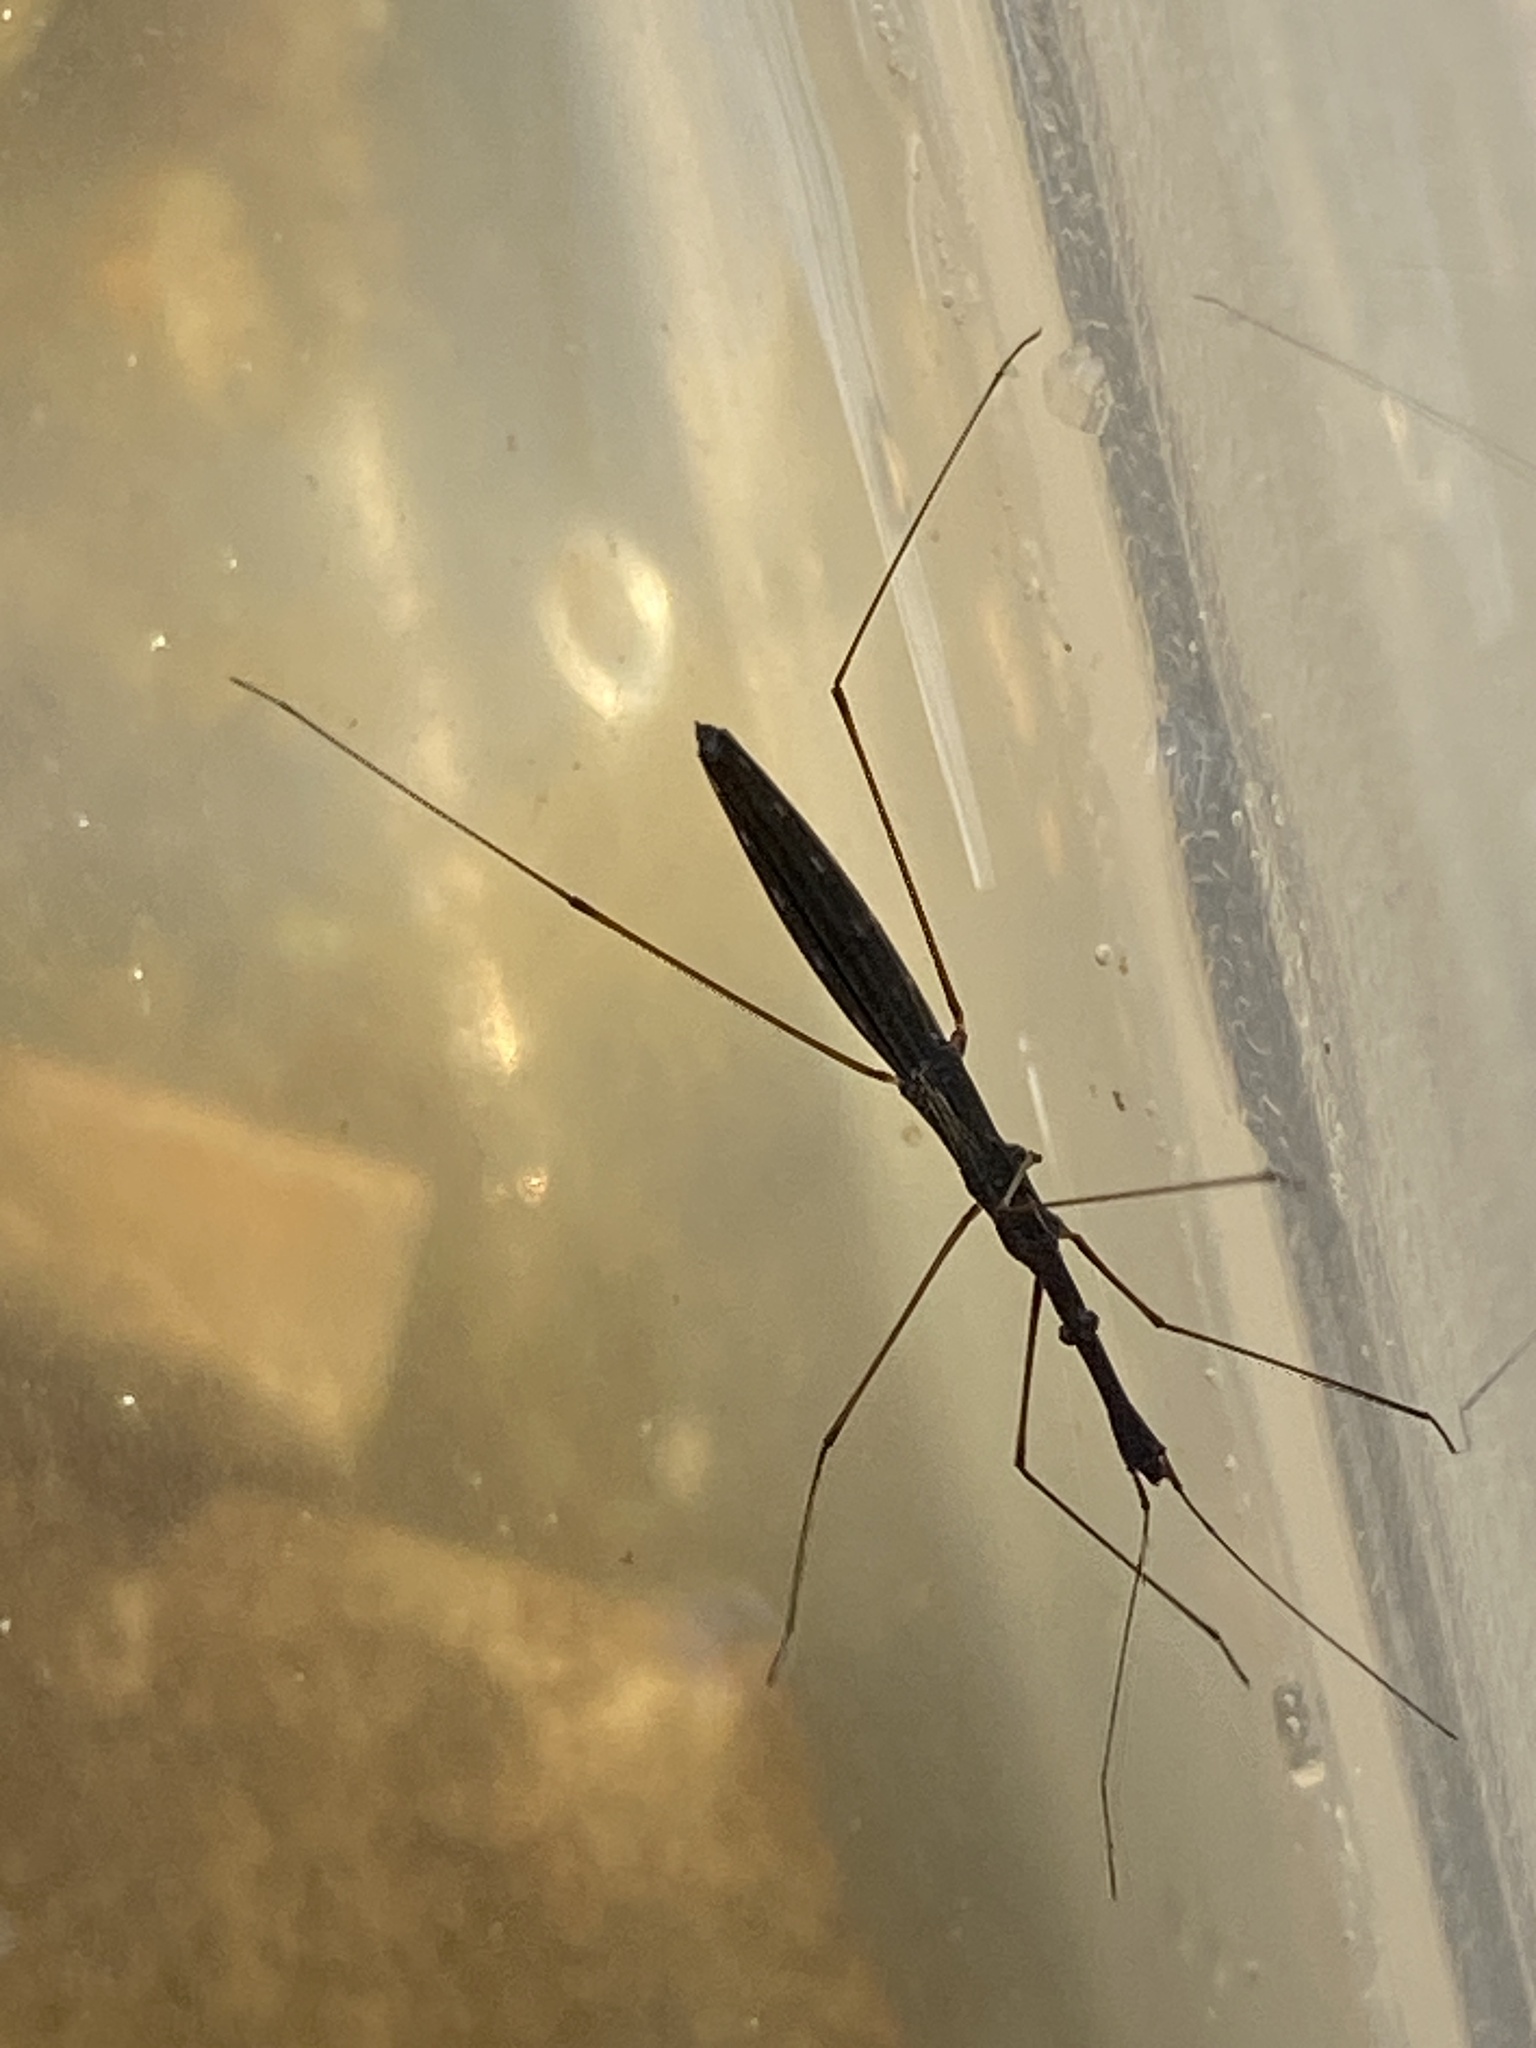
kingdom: Animalia
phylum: Arthropoda
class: Insecta
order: Hemiptera
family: Hydrometridae
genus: Hydrometra
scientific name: Hydrometra stagnorum
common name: Water measurer
